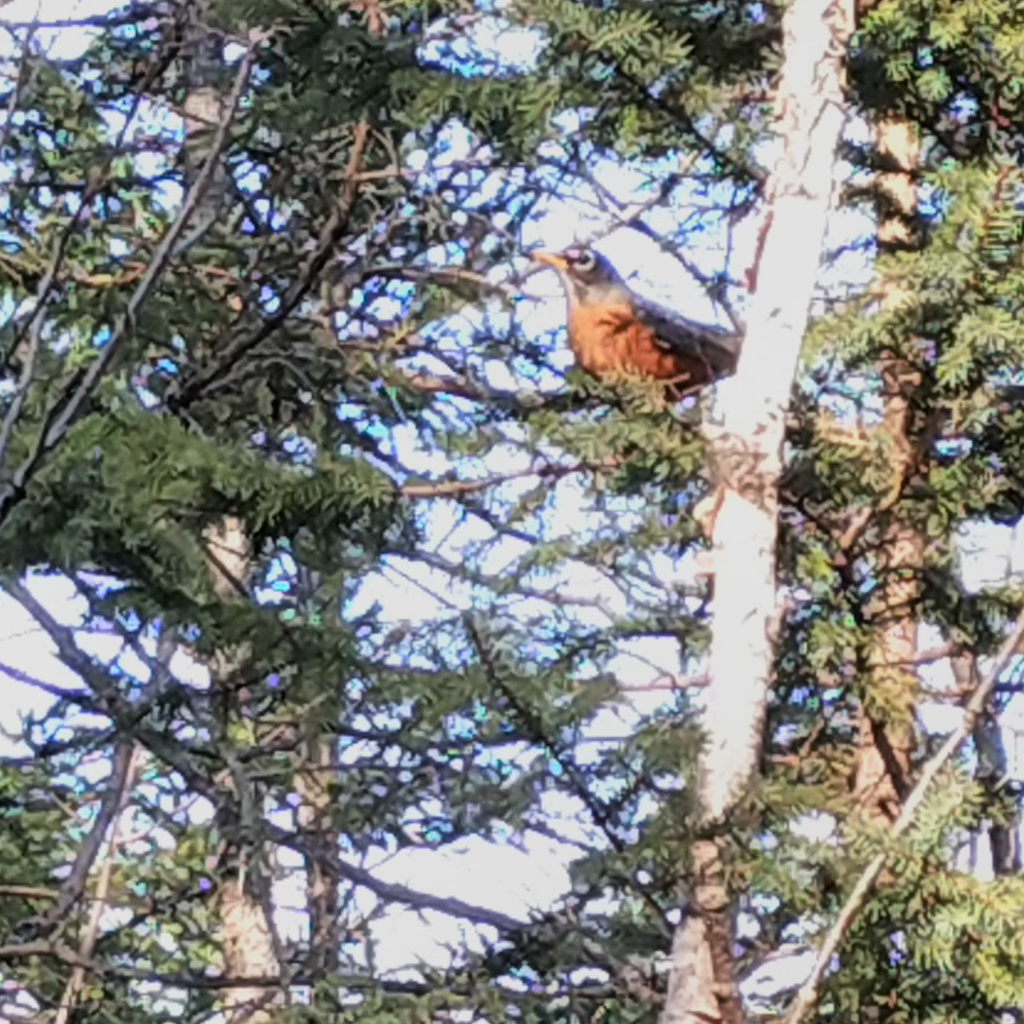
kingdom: Animalia
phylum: Chordata
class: Aves
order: Passeriformes
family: Turdidae
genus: Turdus
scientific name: Turdus migratorius
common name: American robin
